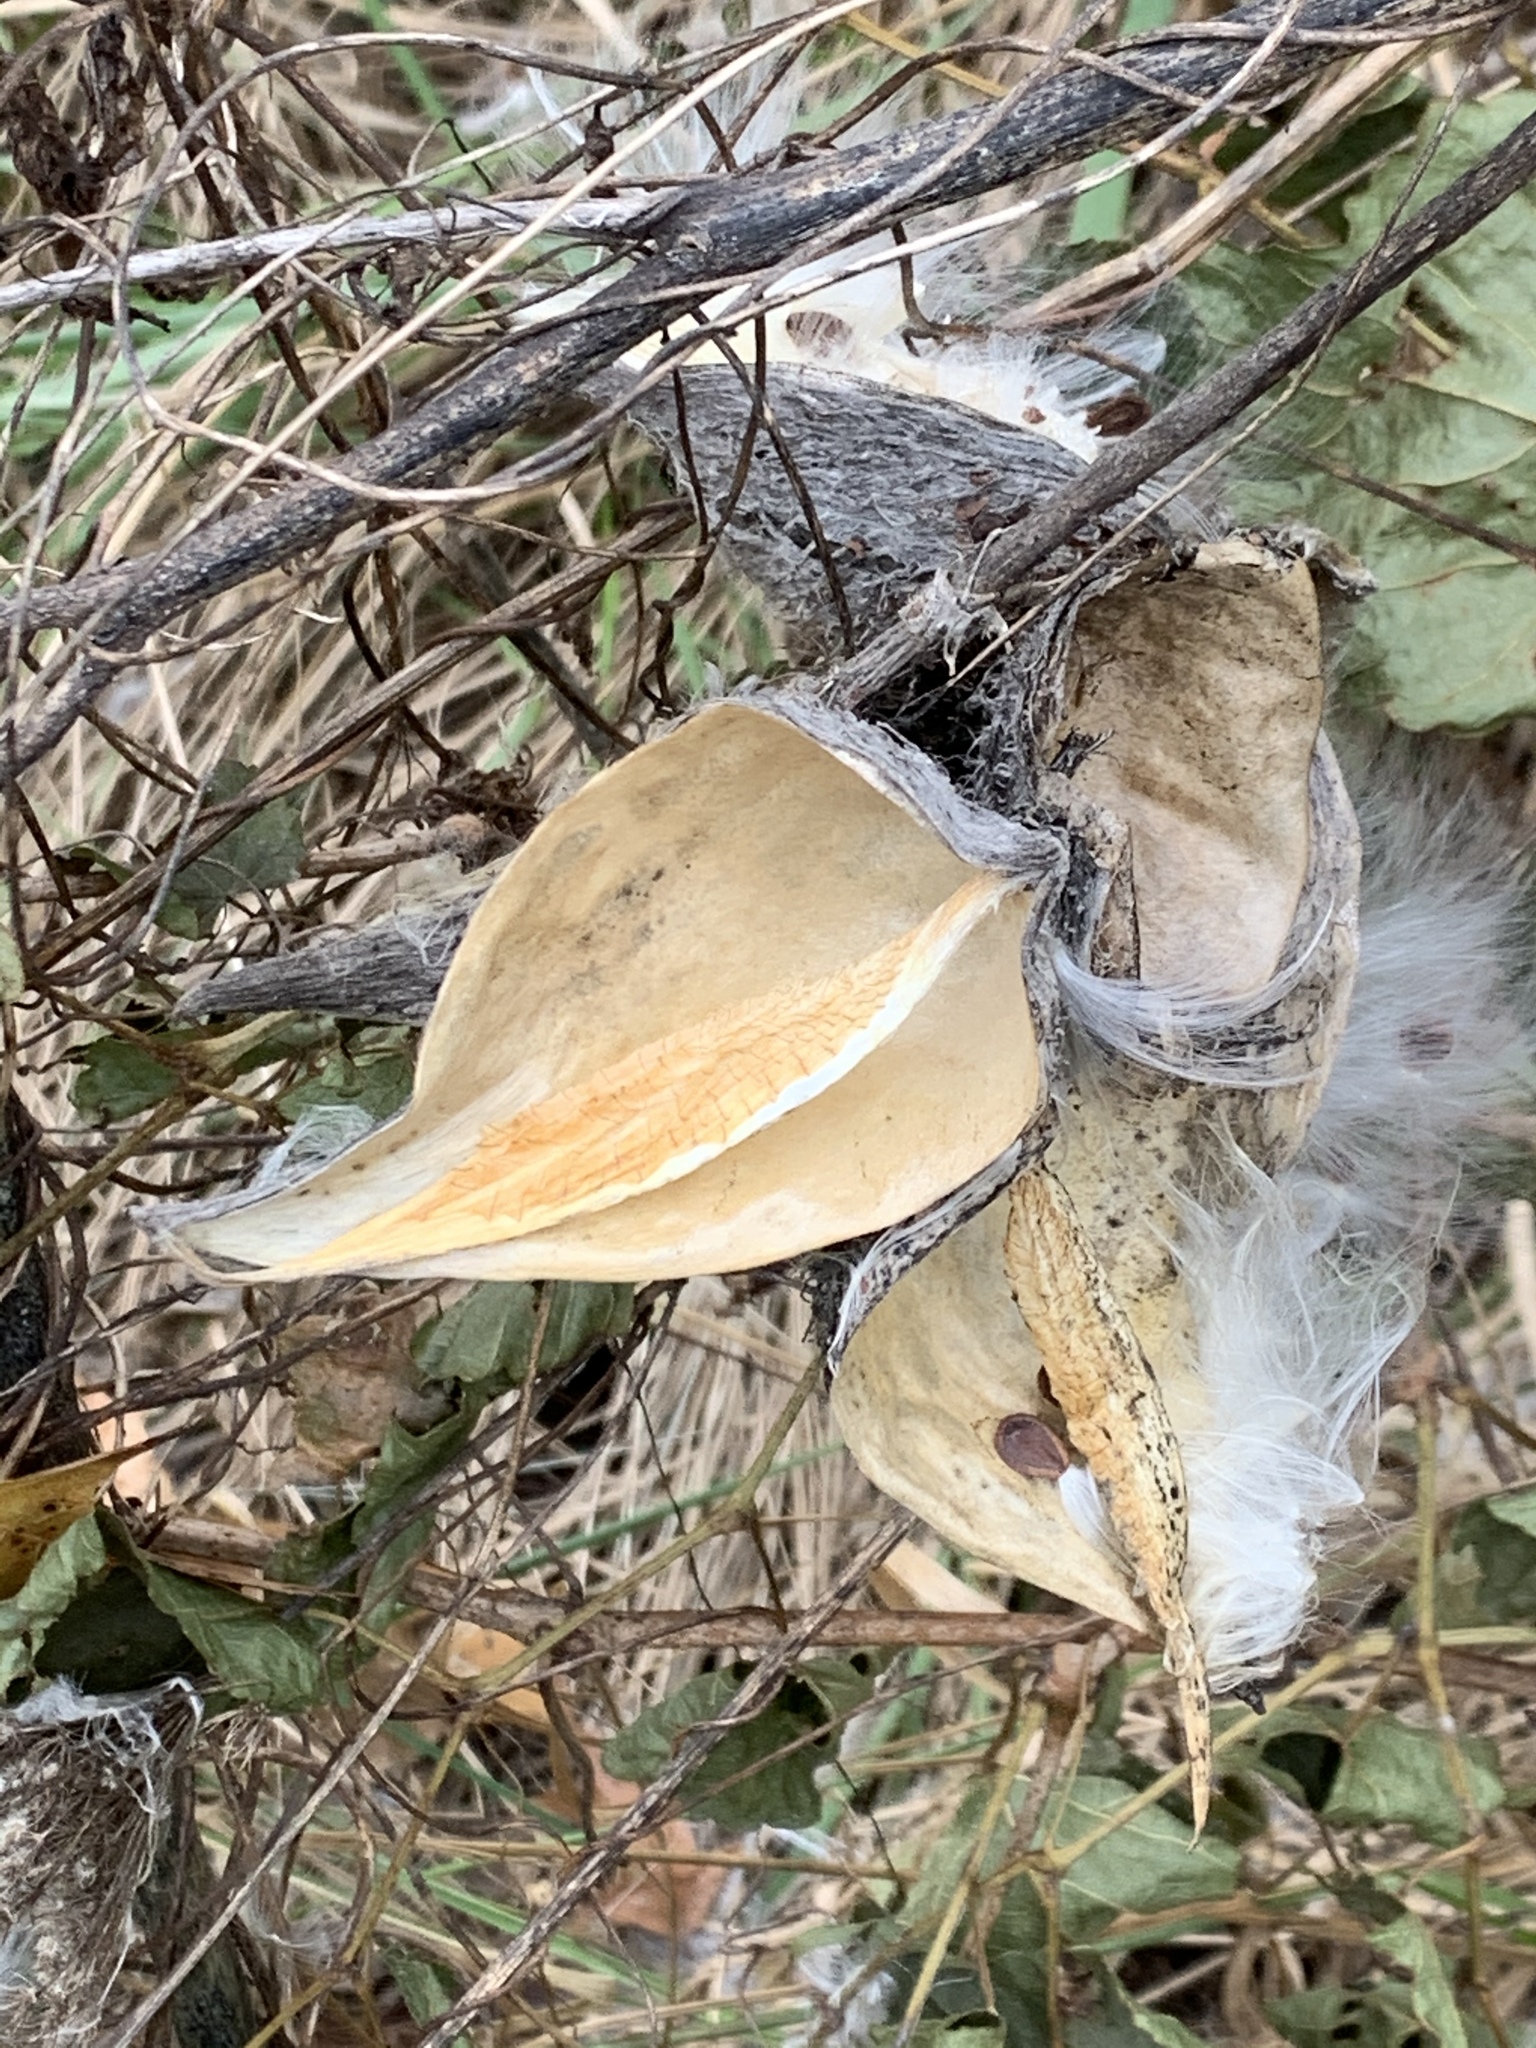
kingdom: Plantae
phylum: Tracheophyta
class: Magnoliopsida
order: Gentianales
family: Apocynaceae
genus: Asclepias
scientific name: Asclepias syriaca
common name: Common milkweed
